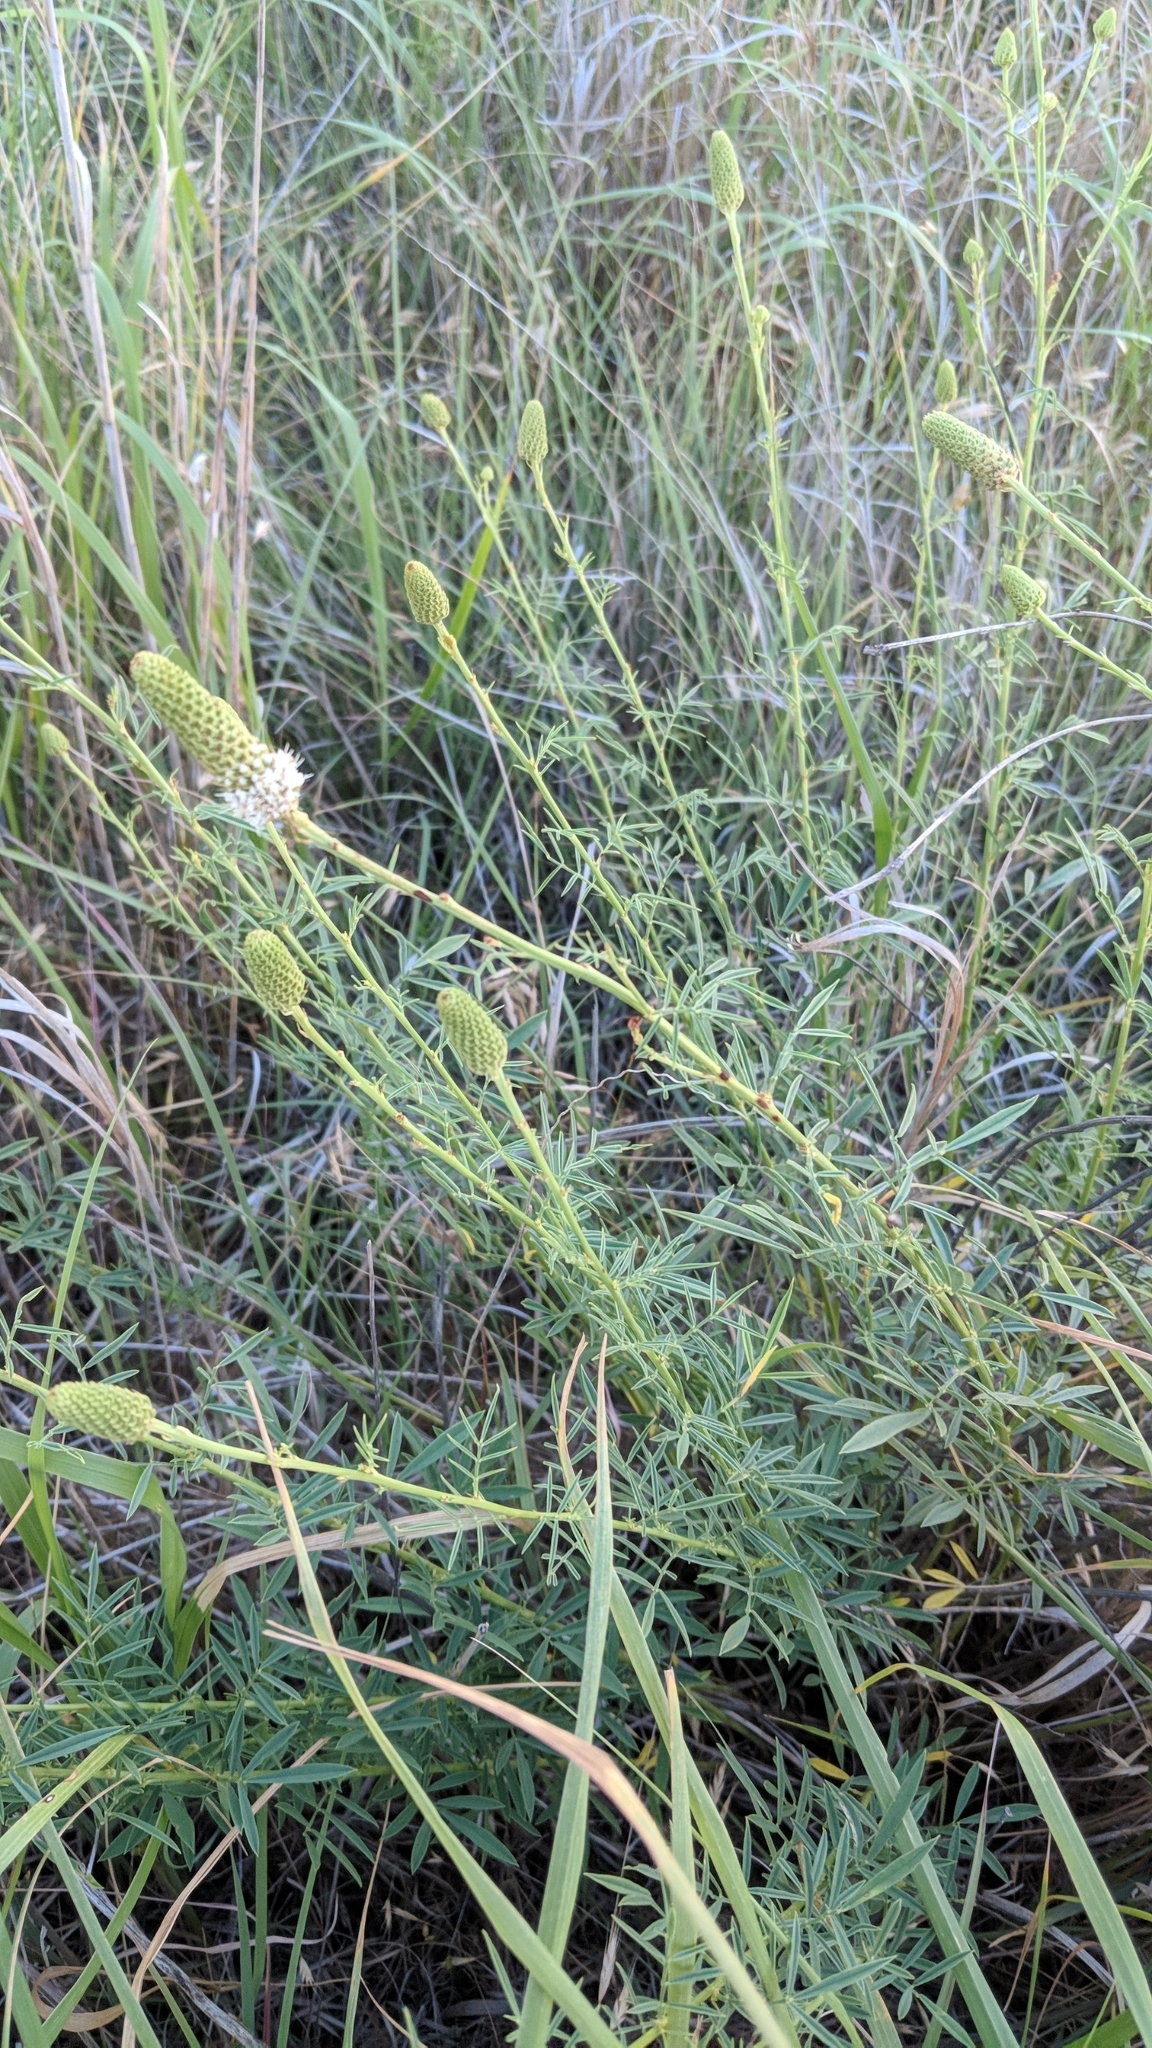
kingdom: Plantae
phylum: Tracheophyta
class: Magnoliopsida
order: Fabales
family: Fabaceae
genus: Dalea
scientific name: Dalea candida
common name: White prairie-clover
